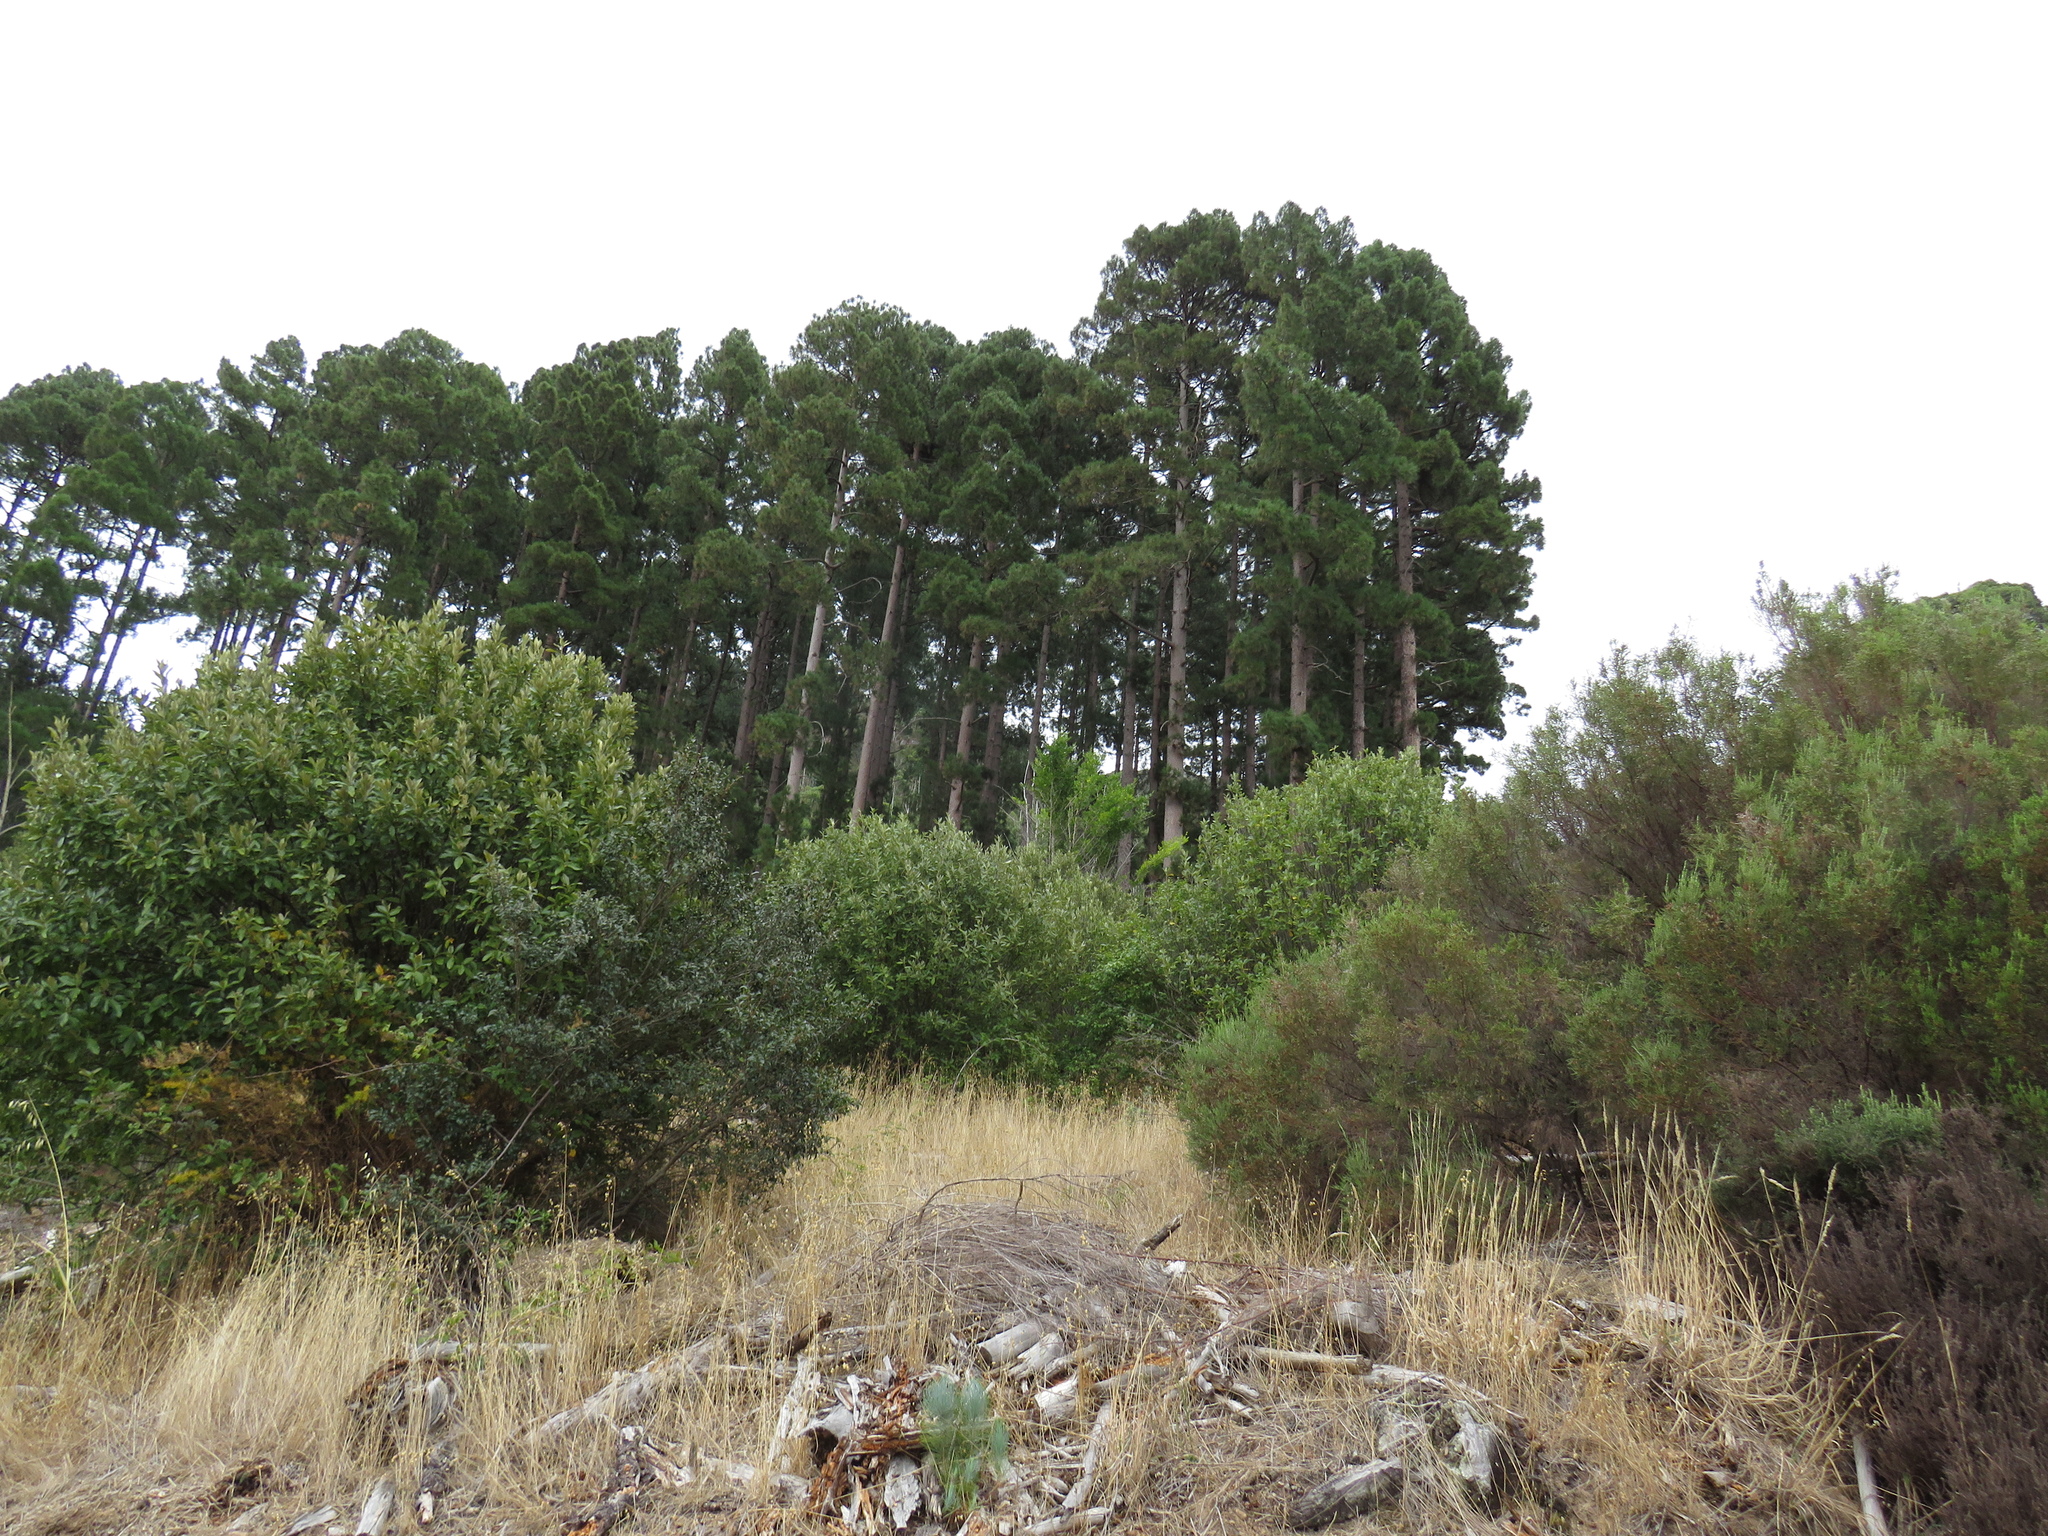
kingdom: Plantae
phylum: Tracheophyta
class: Pinopsida
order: Pinales
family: Pinaceae
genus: Pinus
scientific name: Pinus canariensis
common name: Canary islands pine
